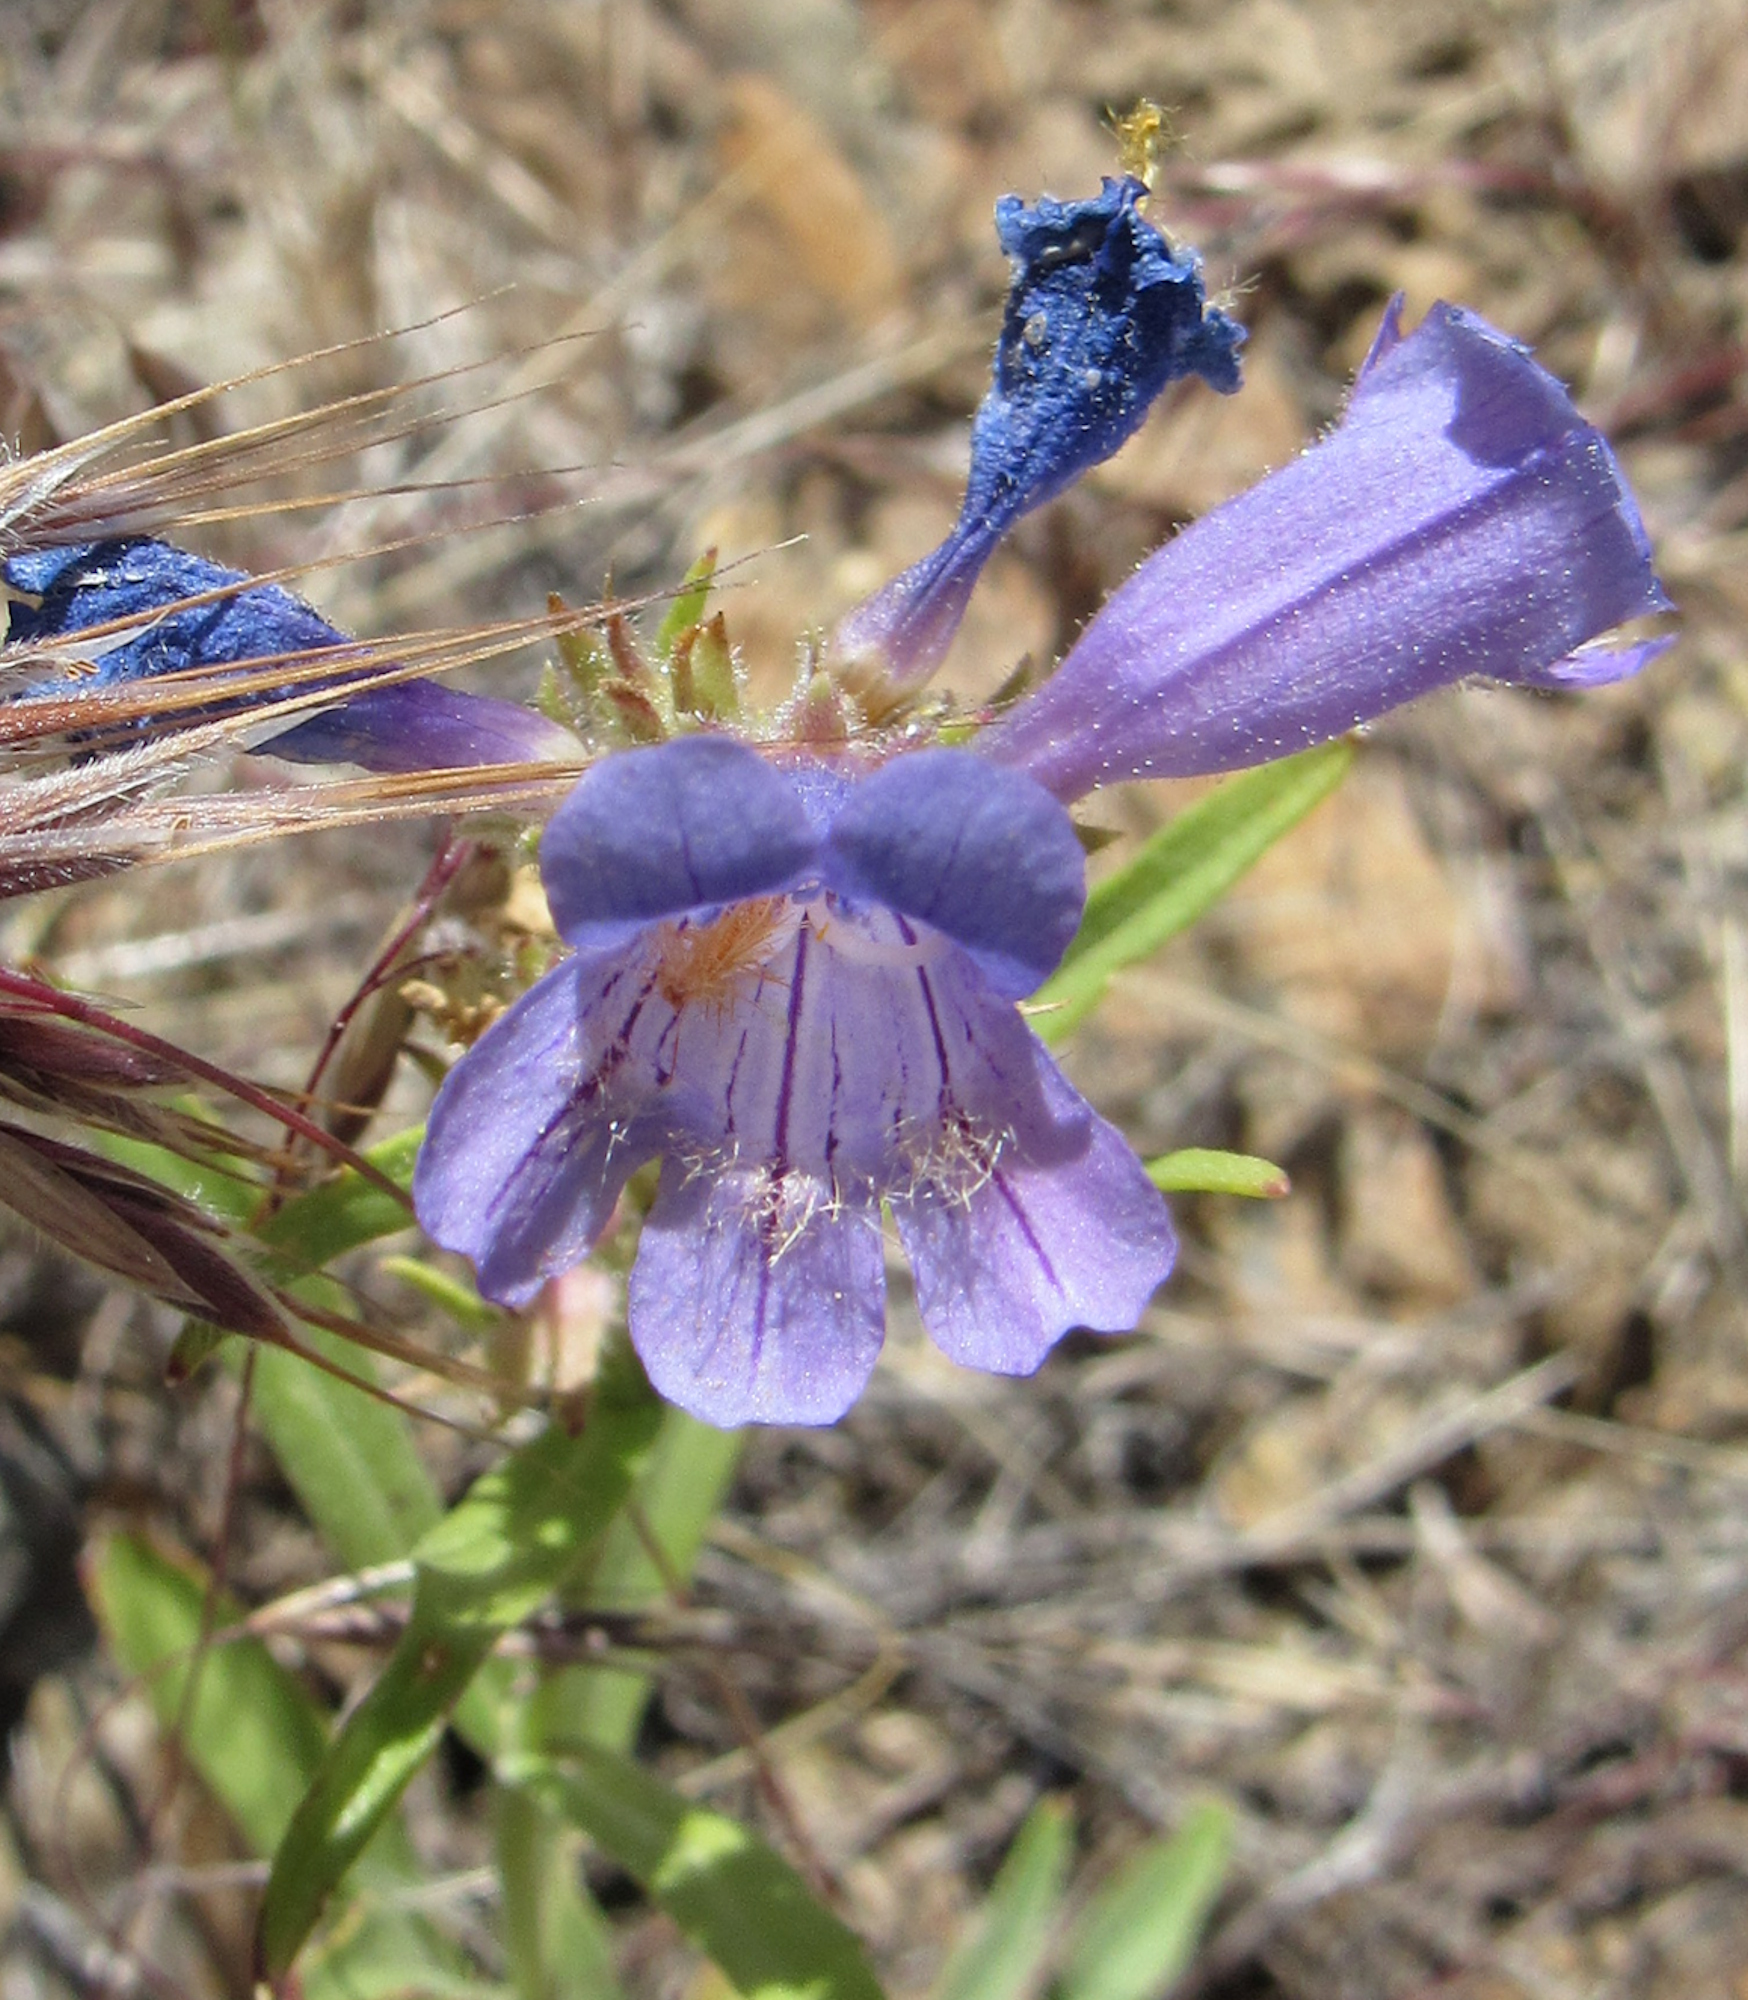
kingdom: Plantae
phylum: Tracheophyta
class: Magnoliopsida
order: Lamiales
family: Plantaginaceae
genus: Penstemon
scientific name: Penstemon eriantherus
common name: Crested beardtongue
